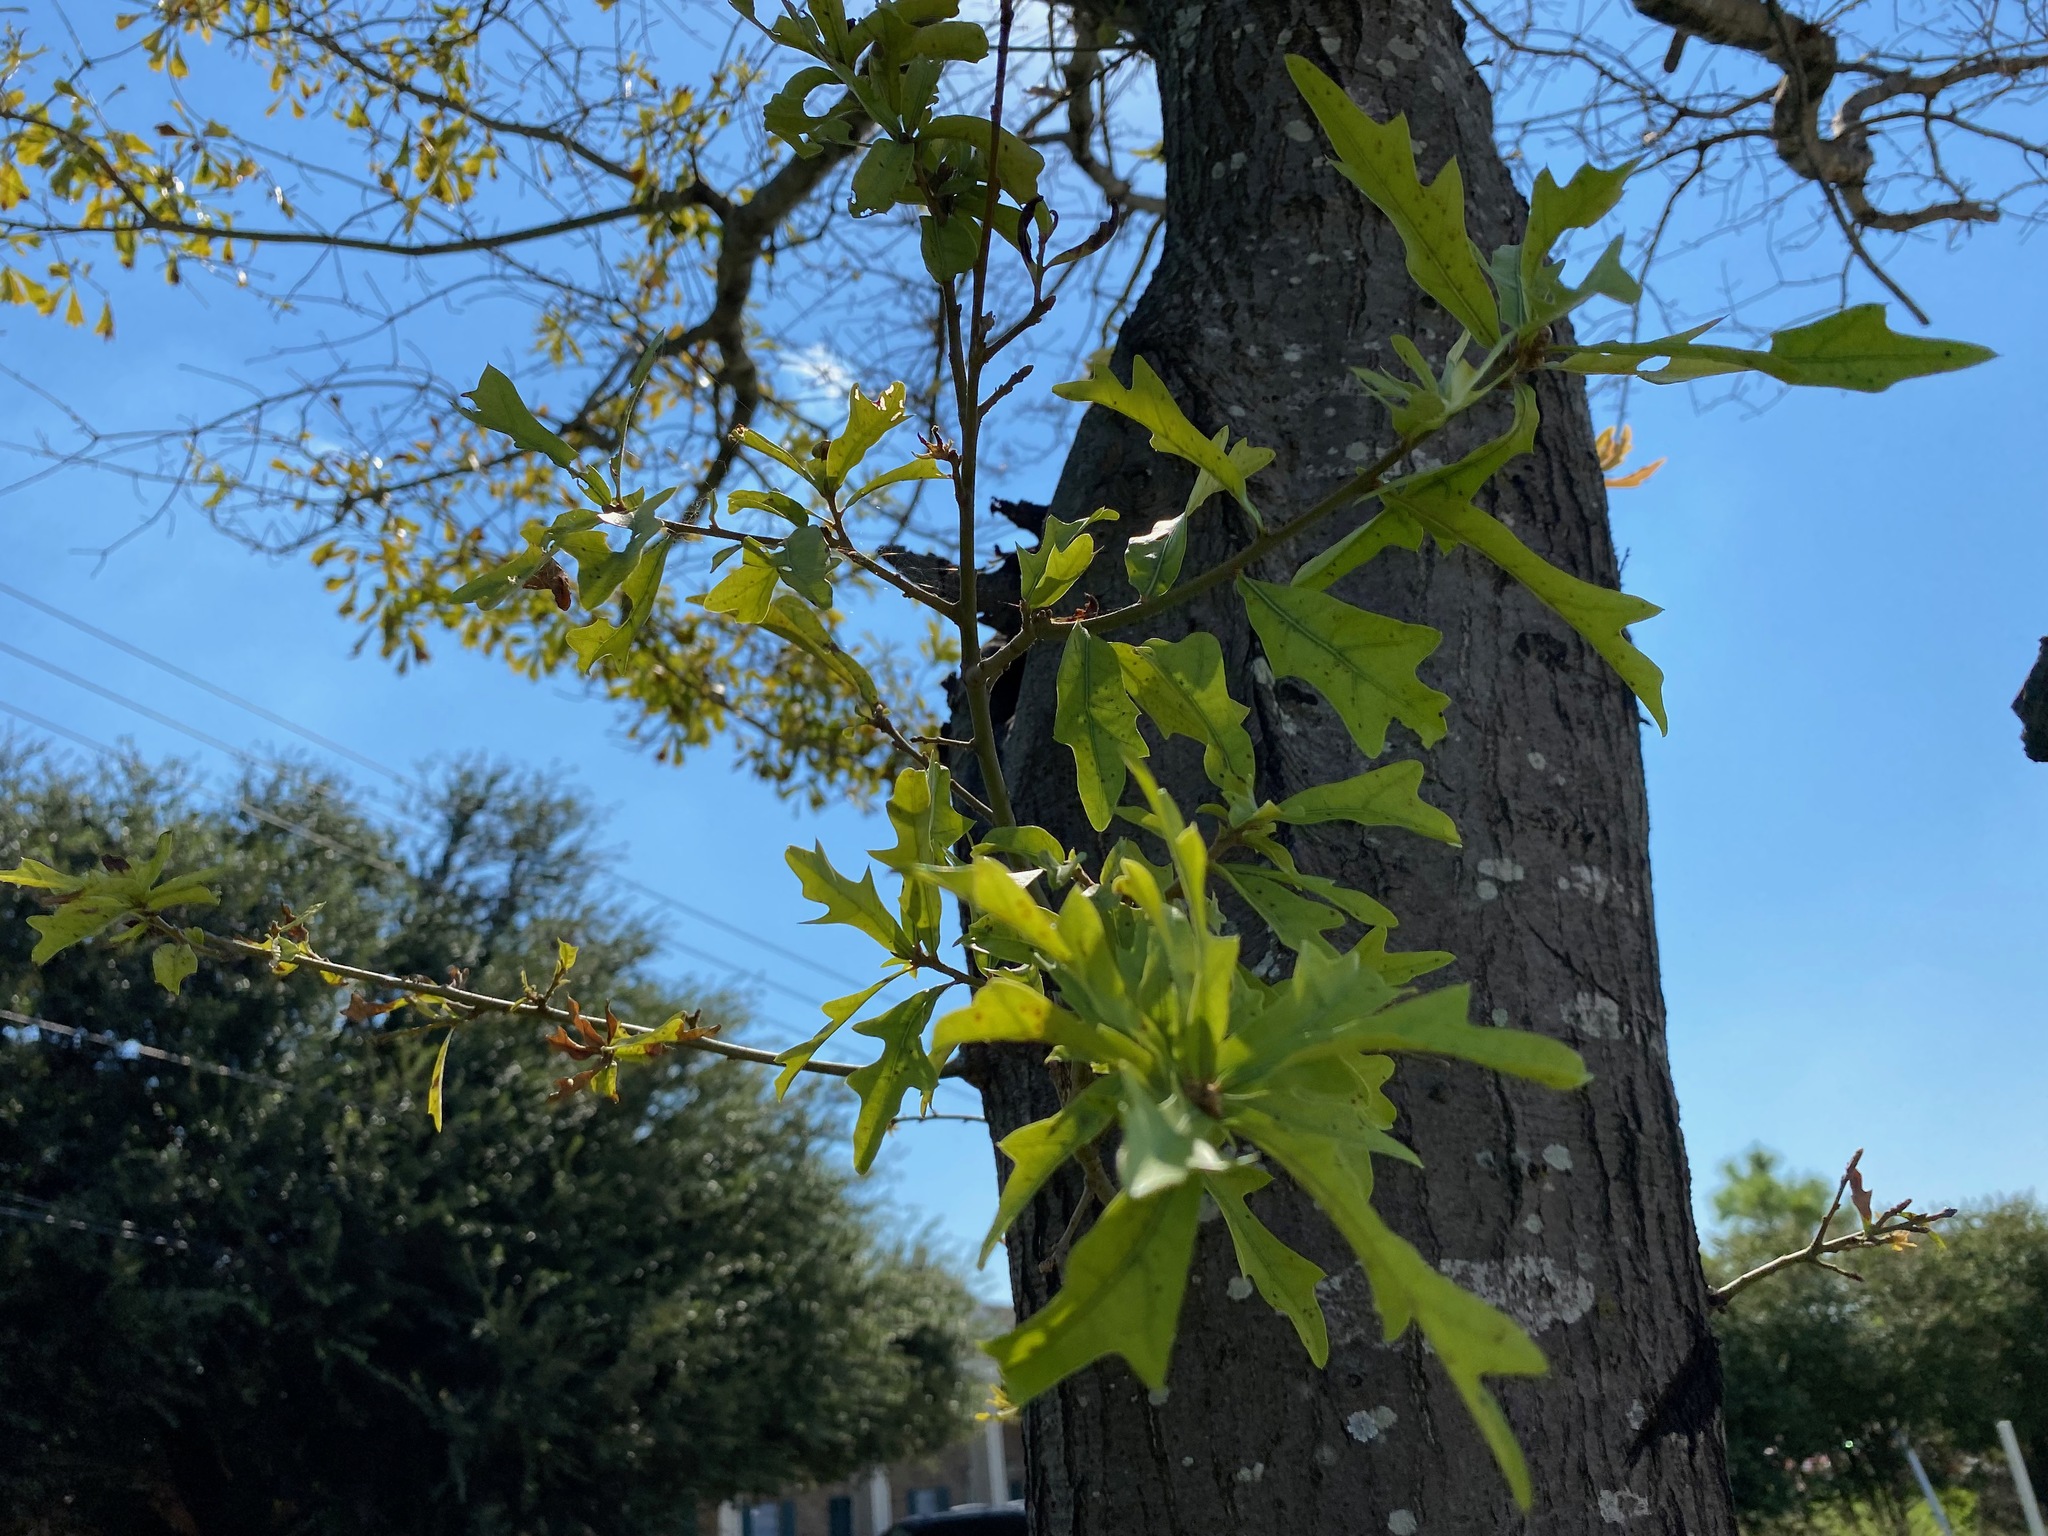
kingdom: Plantae
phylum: Tracheophyta
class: Magnoliopsida
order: Fagales
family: Fagaceae
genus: Quercus
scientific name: Quercus nigra
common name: Water oak
